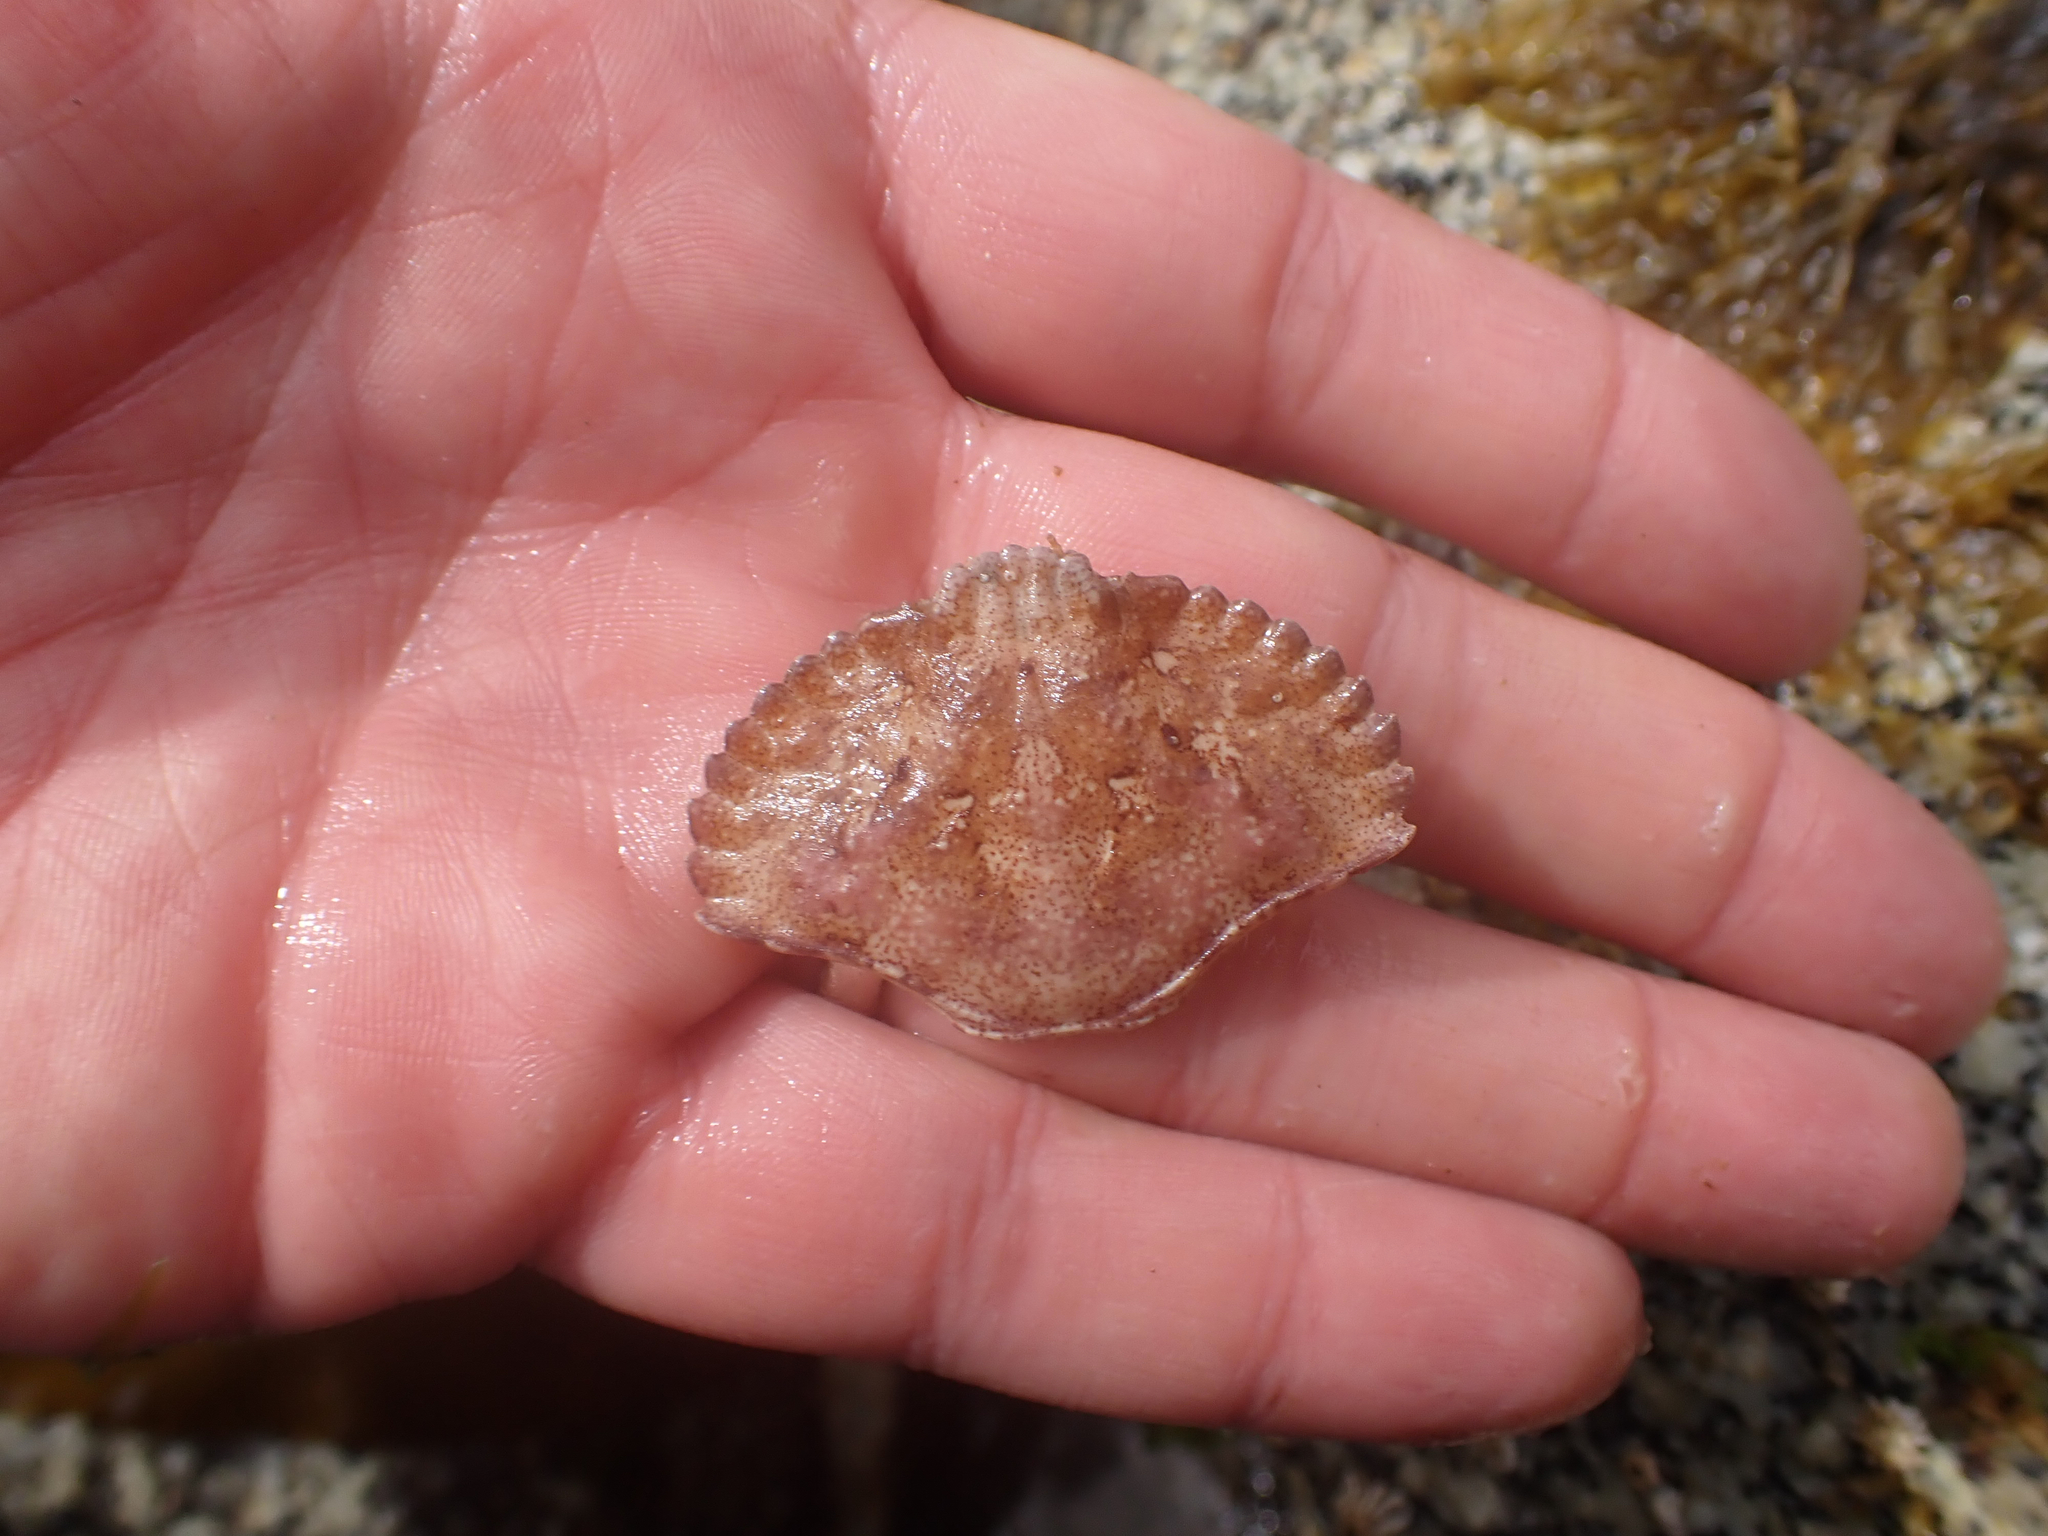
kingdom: Animalia
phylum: Arthropoda
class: Malacostraca
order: Decapoda
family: Cancridae
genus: Cancer
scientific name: Cancer productus
